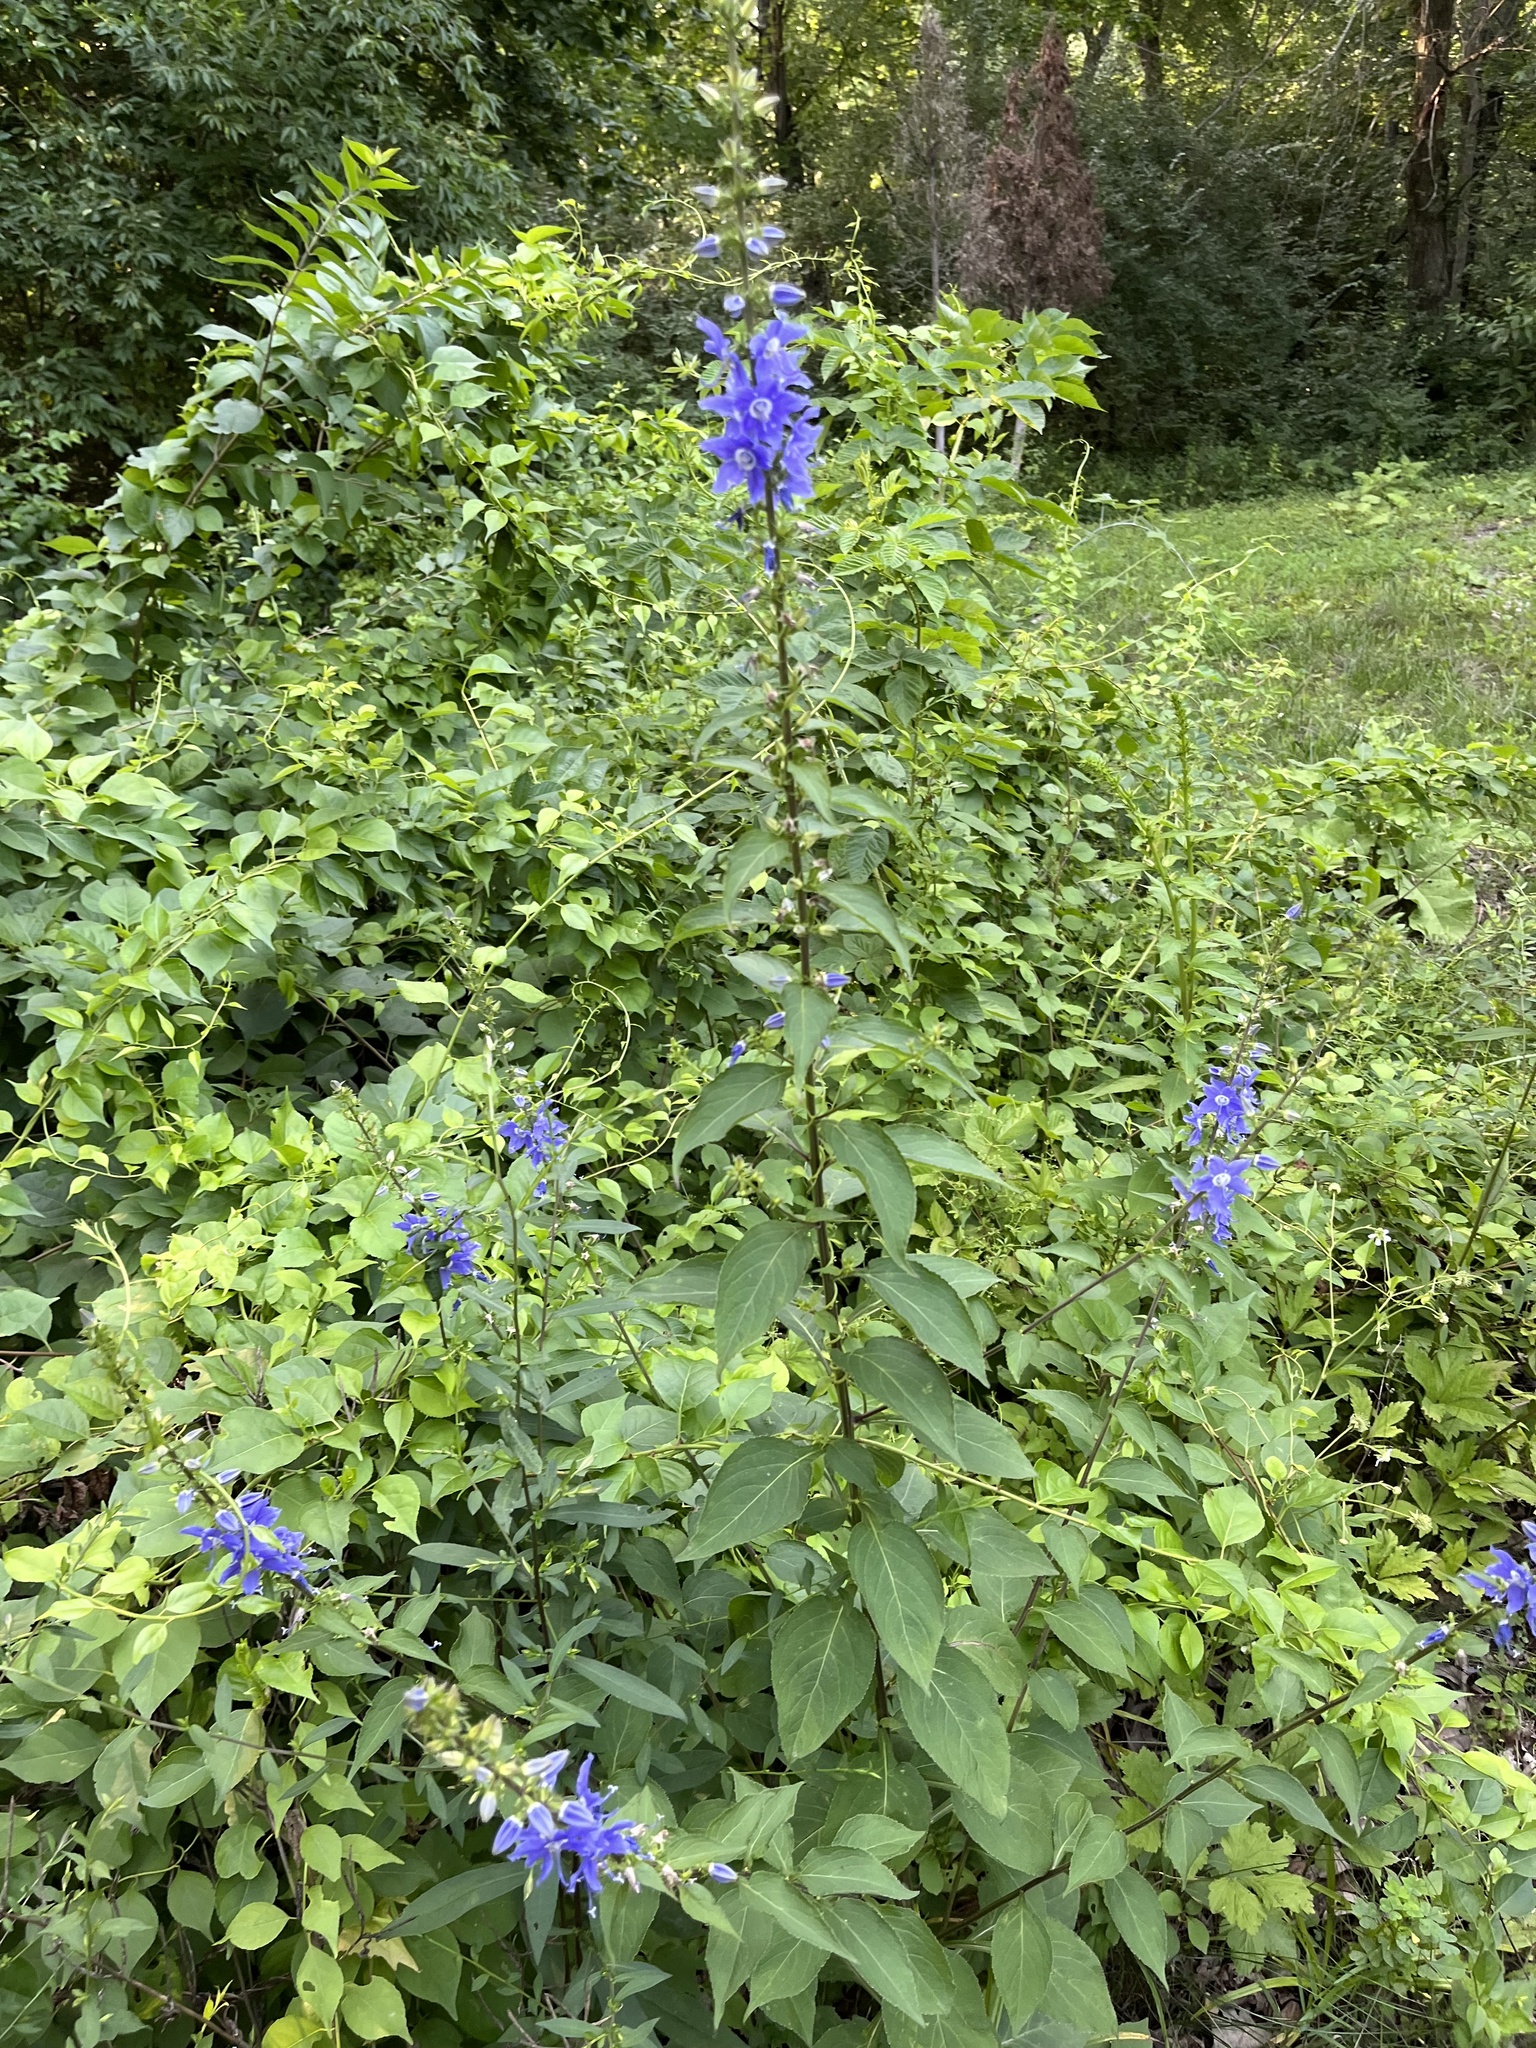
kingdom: Plantae
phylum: Tracheophyta
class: Magnoliopsida
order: Asterales
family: Campanulaceae
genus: Campanulastrum
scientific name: Campanulastrum americanum
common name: American bellflower
